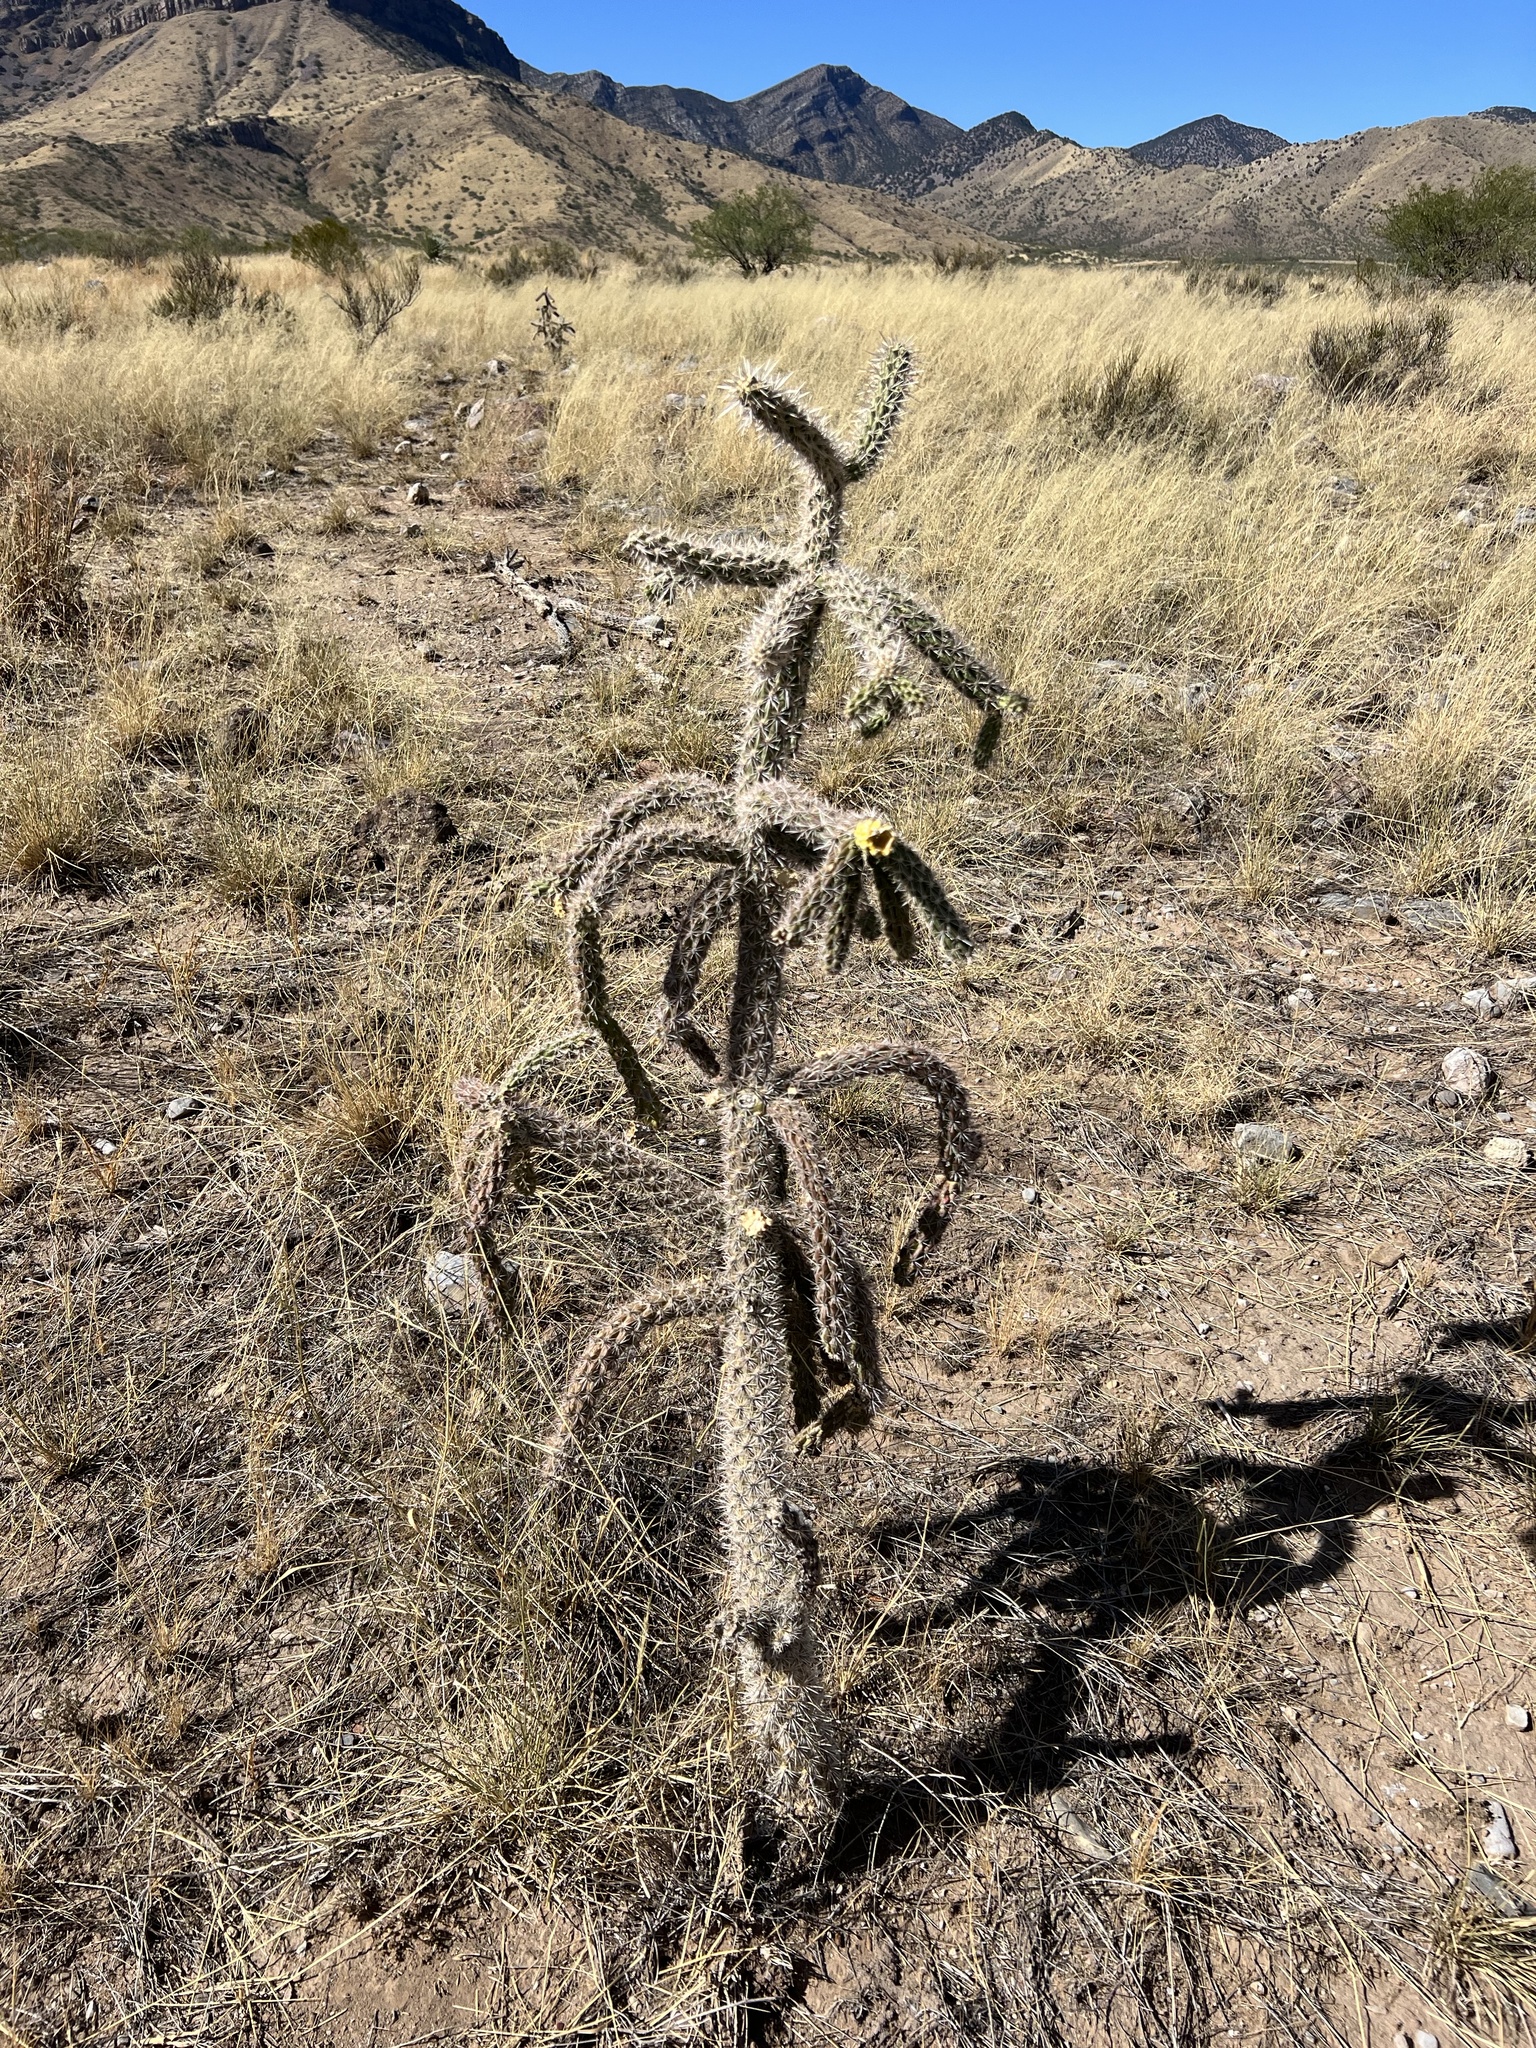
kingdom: Plantae
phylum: Tracheophyta
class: Magnoliopsida
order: Caryophyllales
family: Cactaceae
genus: Cylindropuntia
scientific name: Cylindropuntia imbricata
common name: Candelabrum cactus
